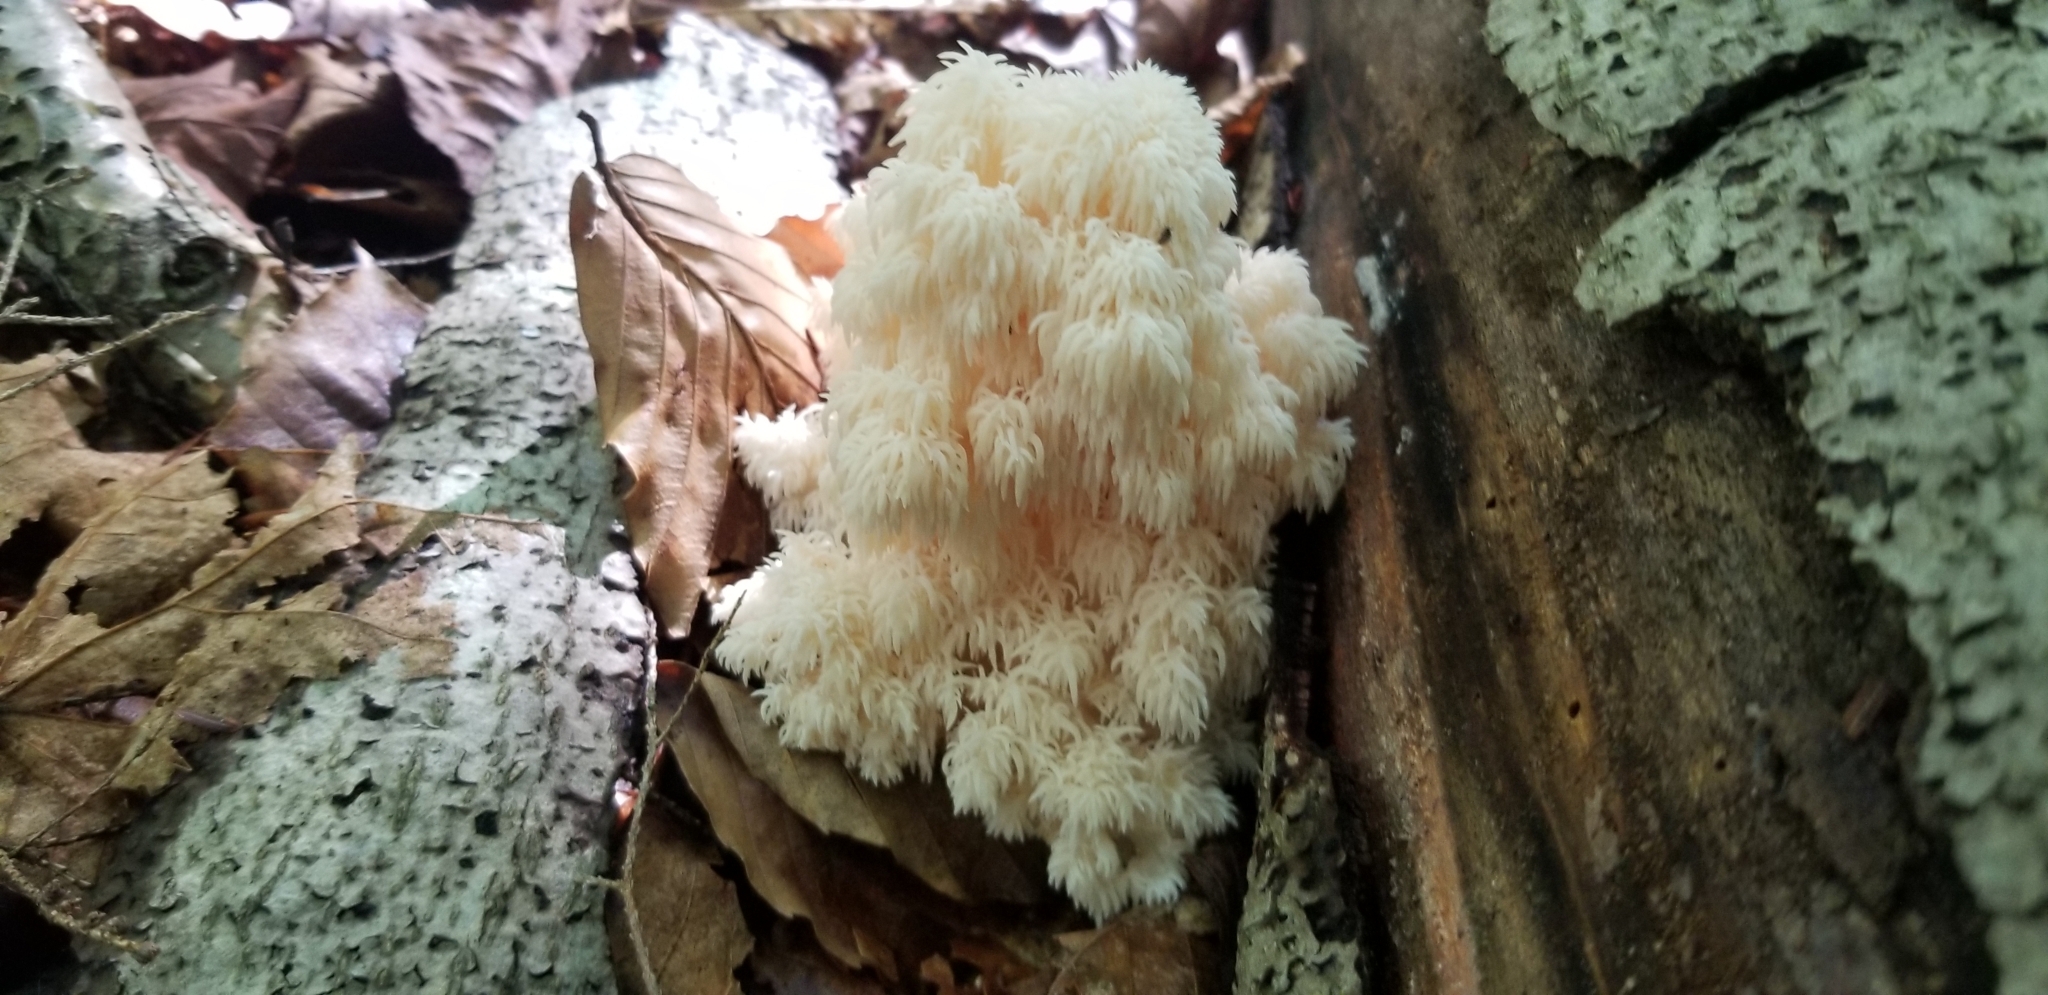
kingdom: Fungi
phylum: Basidiomycota
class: Agaricomycetes
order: Russulales
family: Hericiaceae
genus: Hericium
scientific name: Hericium americanum
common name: Bear's head tooth
